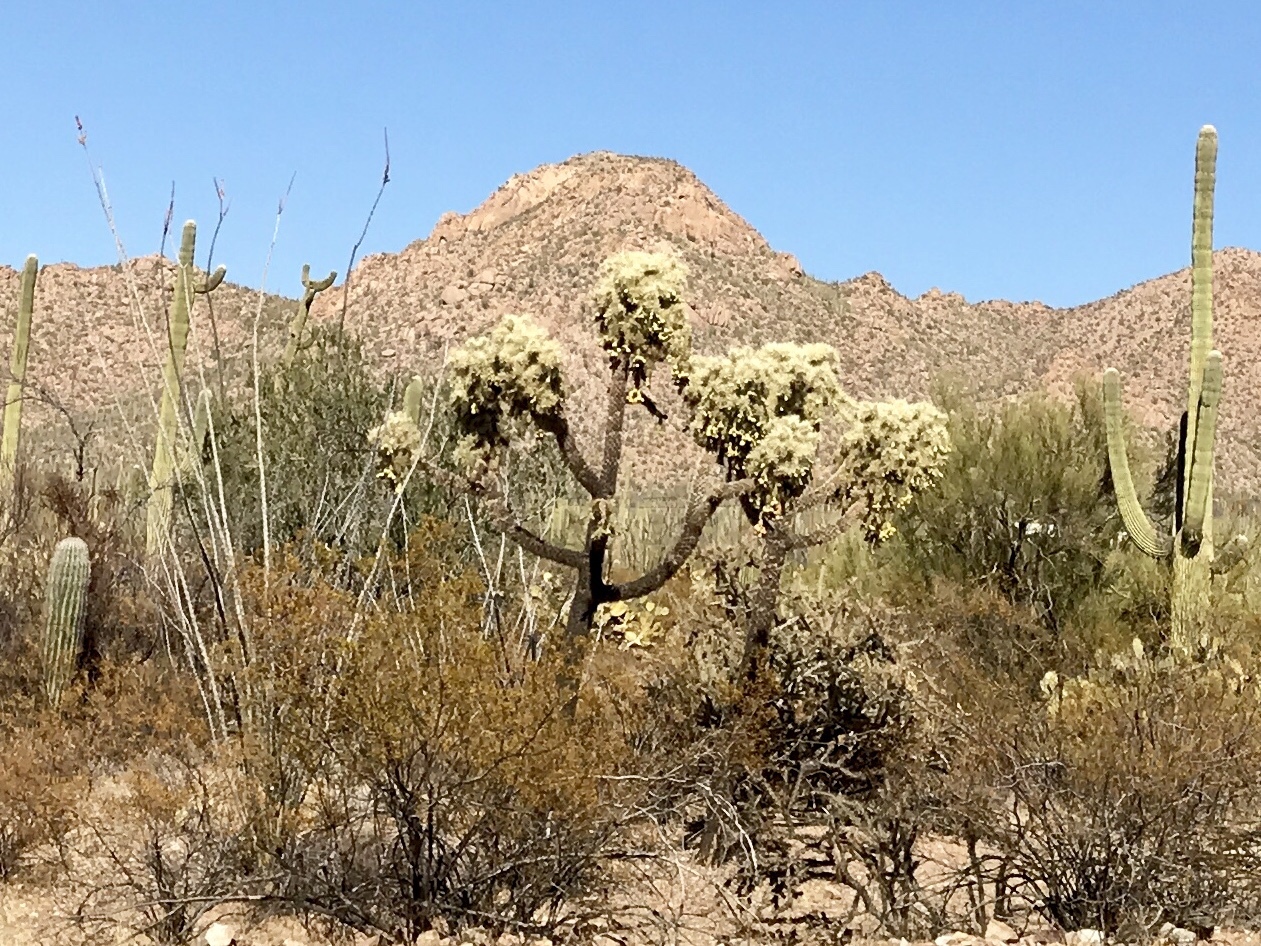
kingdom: Plantae
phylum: Tracheophyta
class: Magnoliopsida
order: Caryophyllales
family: Cactaceae
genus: Cylindropuntia
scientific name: Cylindropuntia fulgida
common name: Jumping cholla
